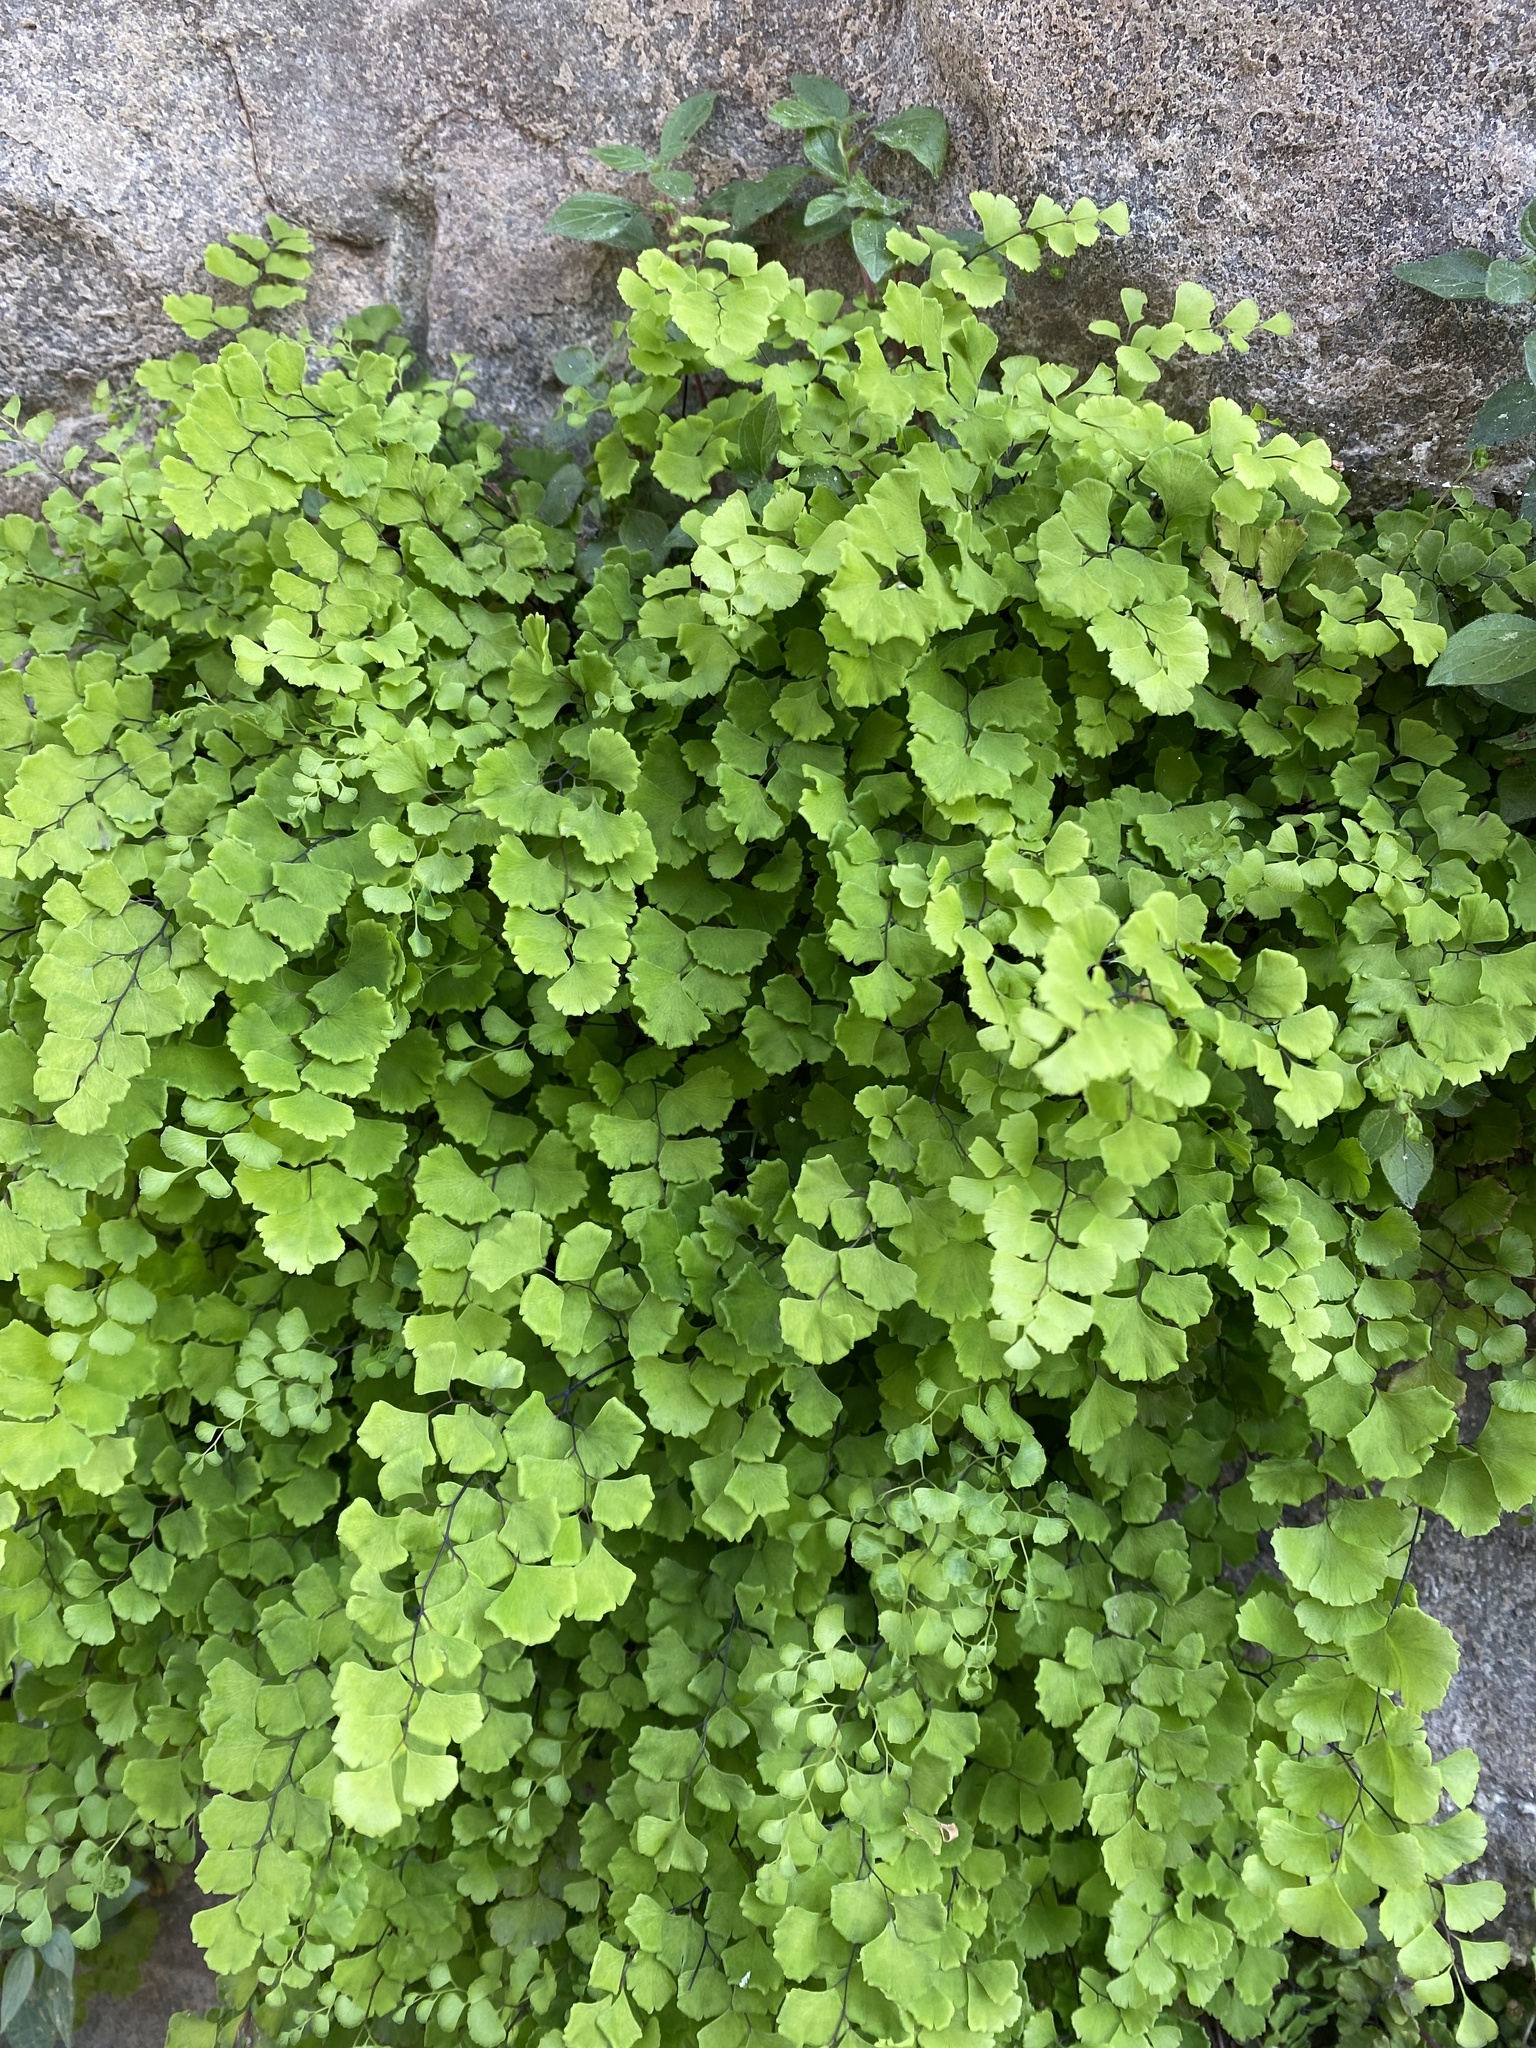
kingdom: Plantae
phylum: Tracheophyta
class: Polypodiopsida
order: Polypodiales
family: Pteridaceae
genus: Adiantum
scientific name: Adiantum capillus-veneris
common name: Maidenhair fern
